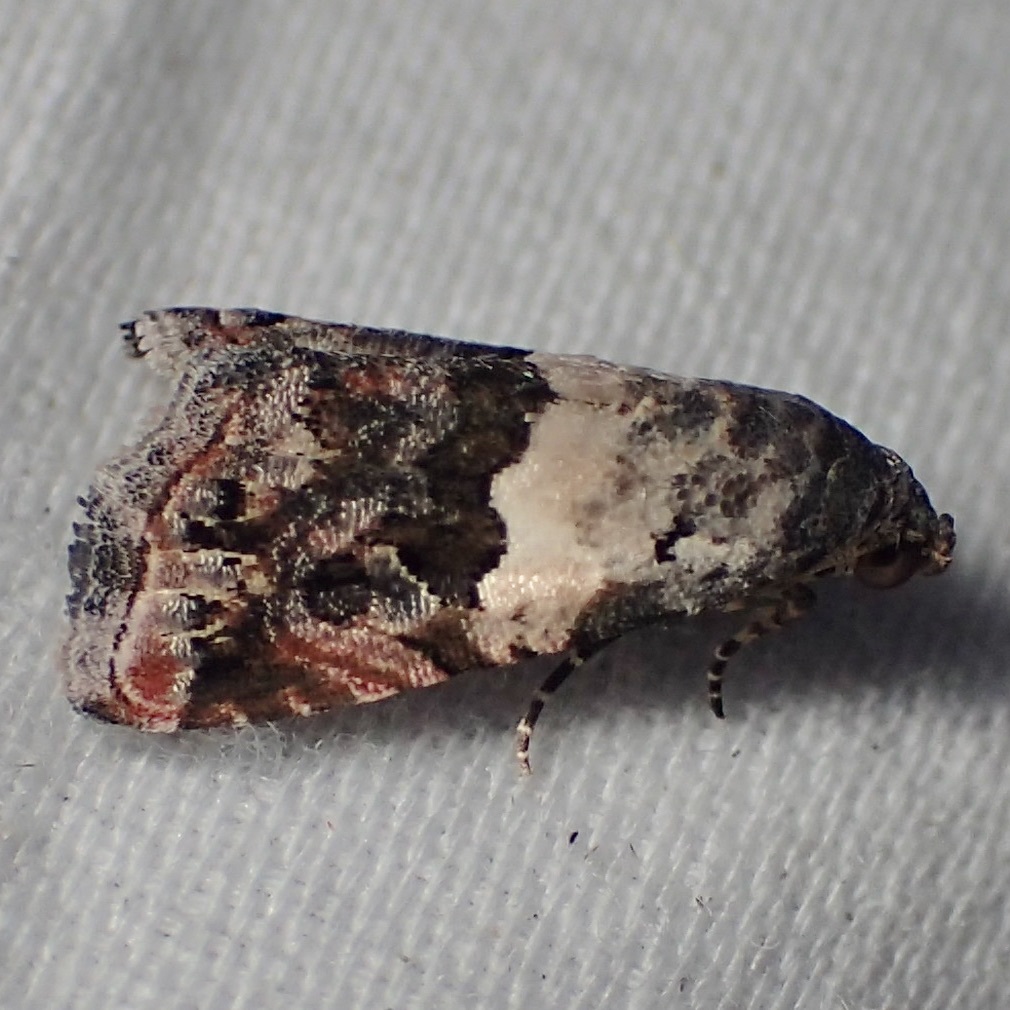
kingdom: Animalia
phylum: Arthropoda
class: Insecta
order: Lepidoptera
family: Noctuidae
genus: Tripudia
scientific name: Tripudia luxuriosa
